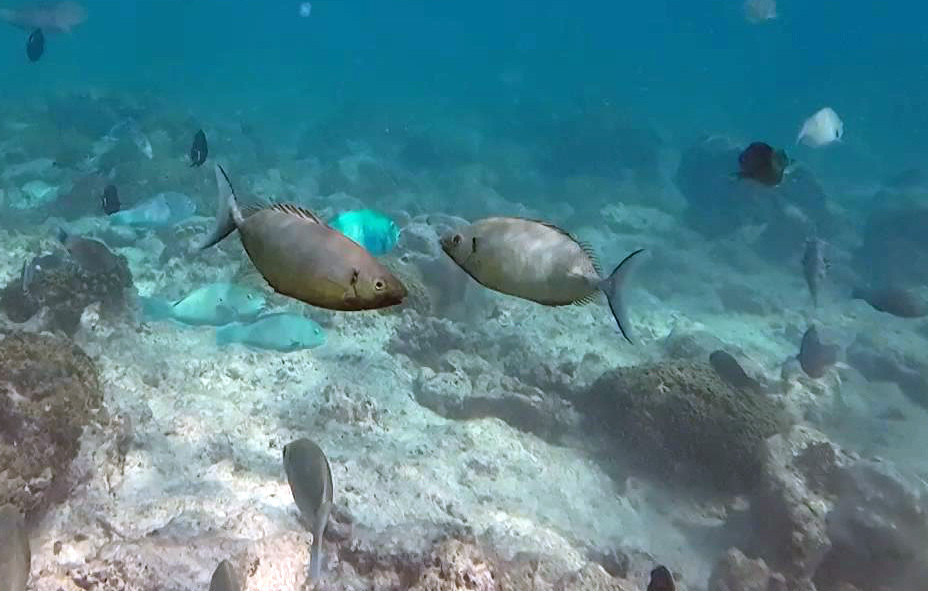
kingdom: Animalia
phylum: Chordata
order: Perciformes
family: Siganidae
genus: Siganus
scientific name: Siganus argenteus
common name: Forktail rabbitfish
